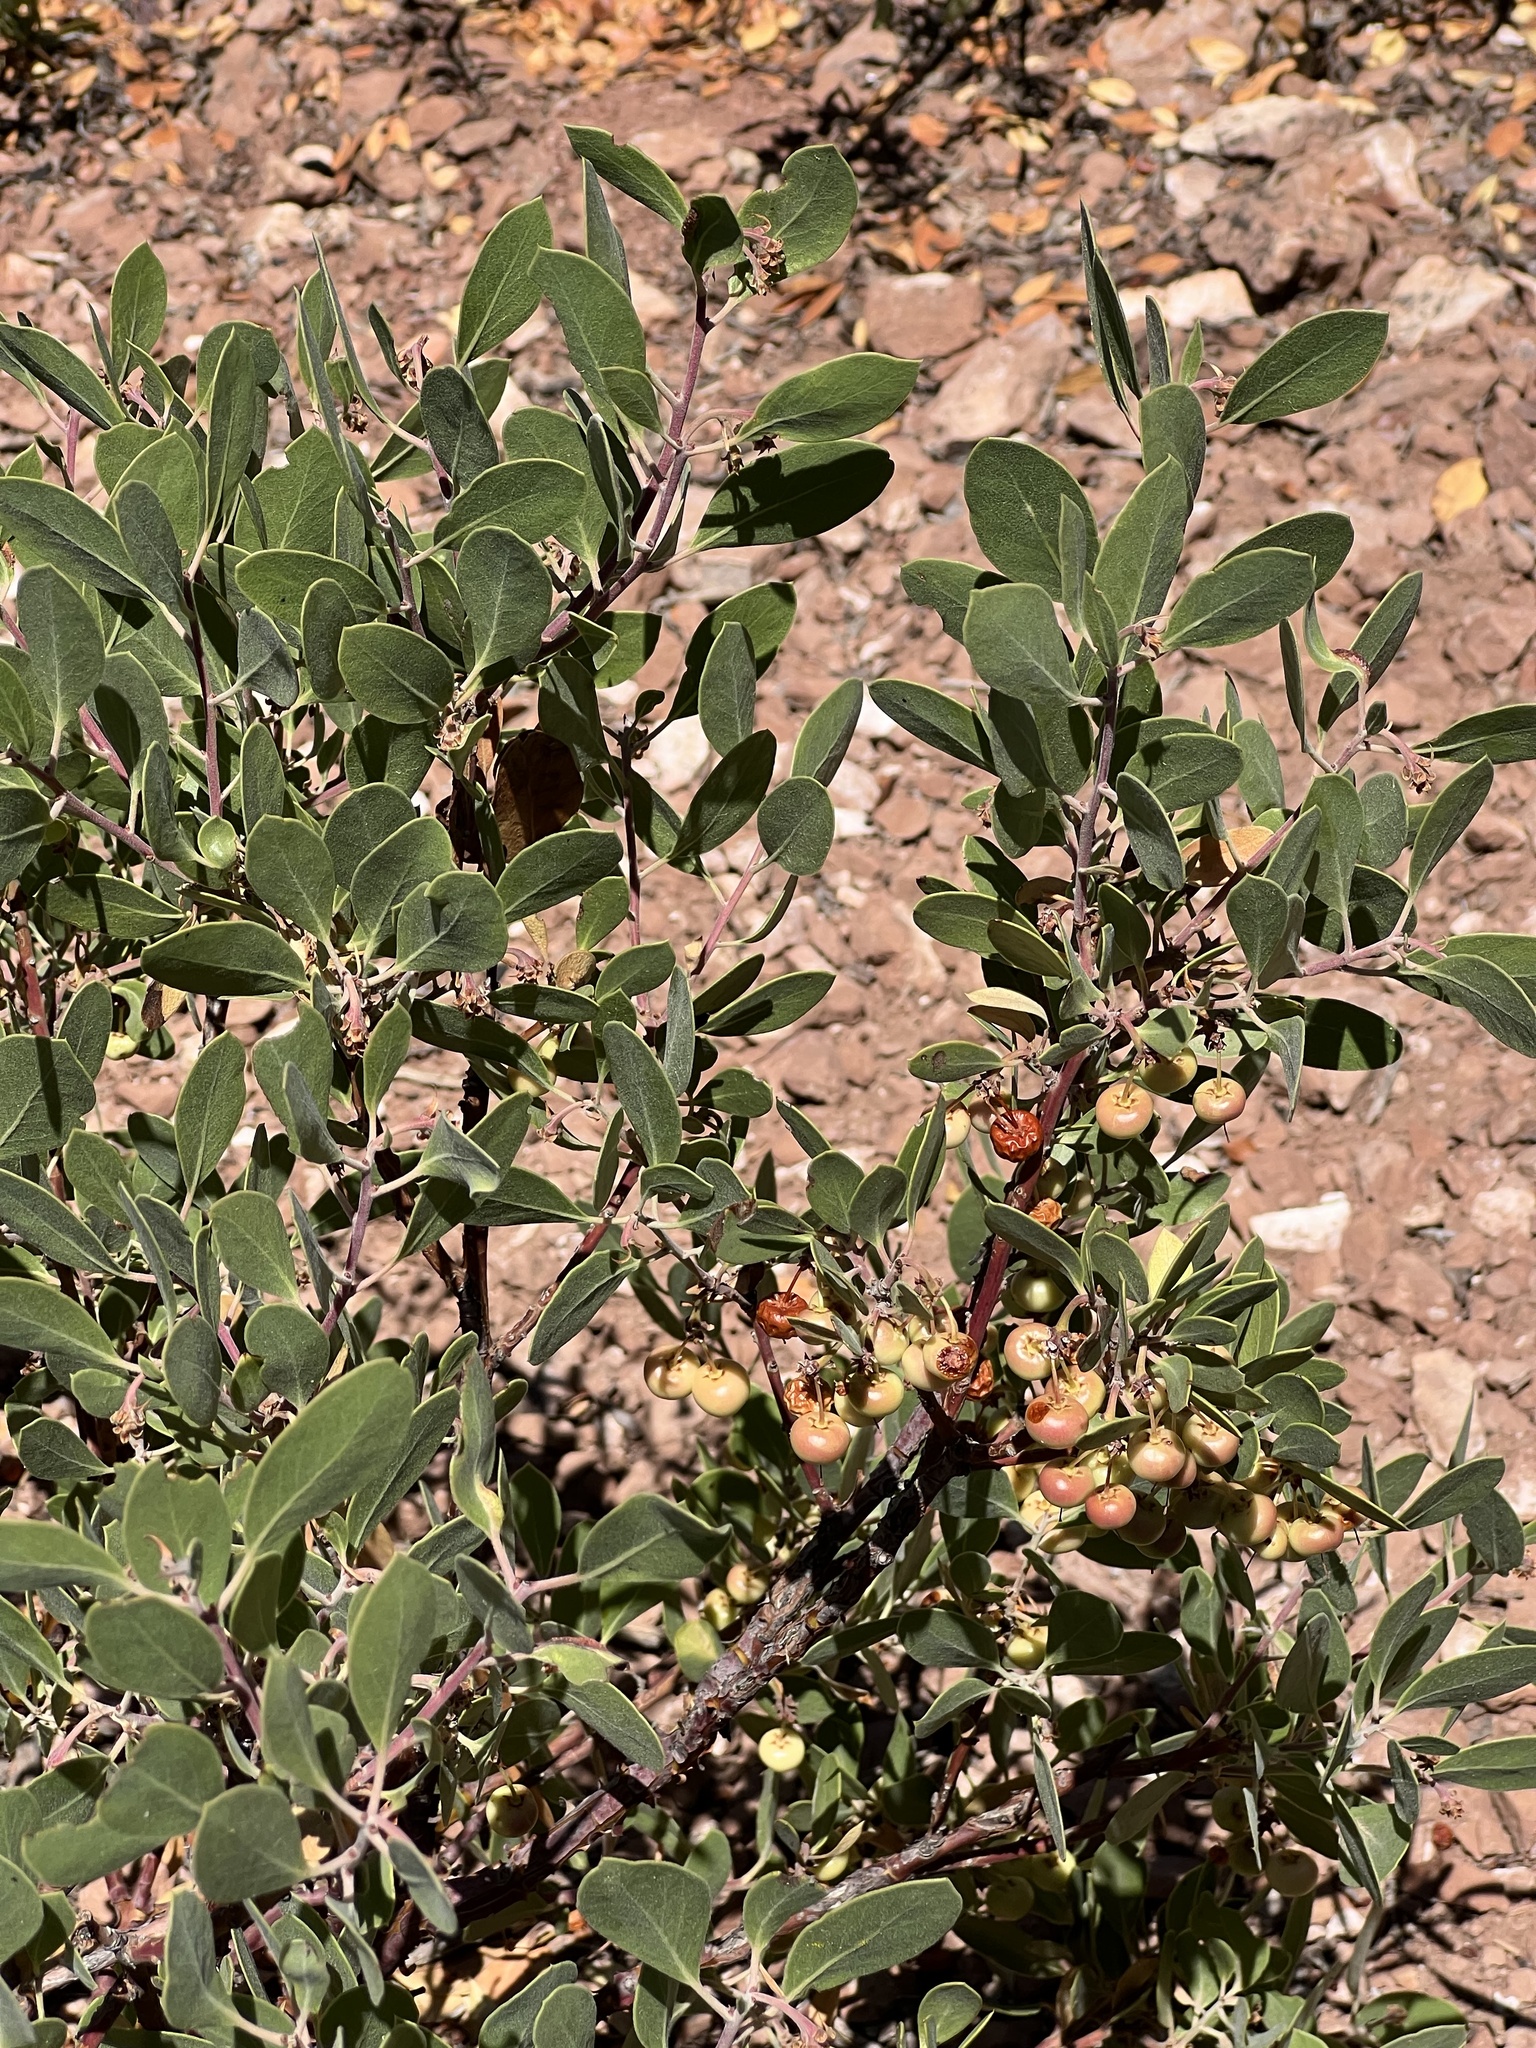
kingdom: Plantae
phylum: Tracheophyta
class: Magnoliopsida
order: Ericales
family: Ericaceae
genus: Arctostaphylos
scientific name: Arctostaphylos pungens
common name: Mexican manzanita
